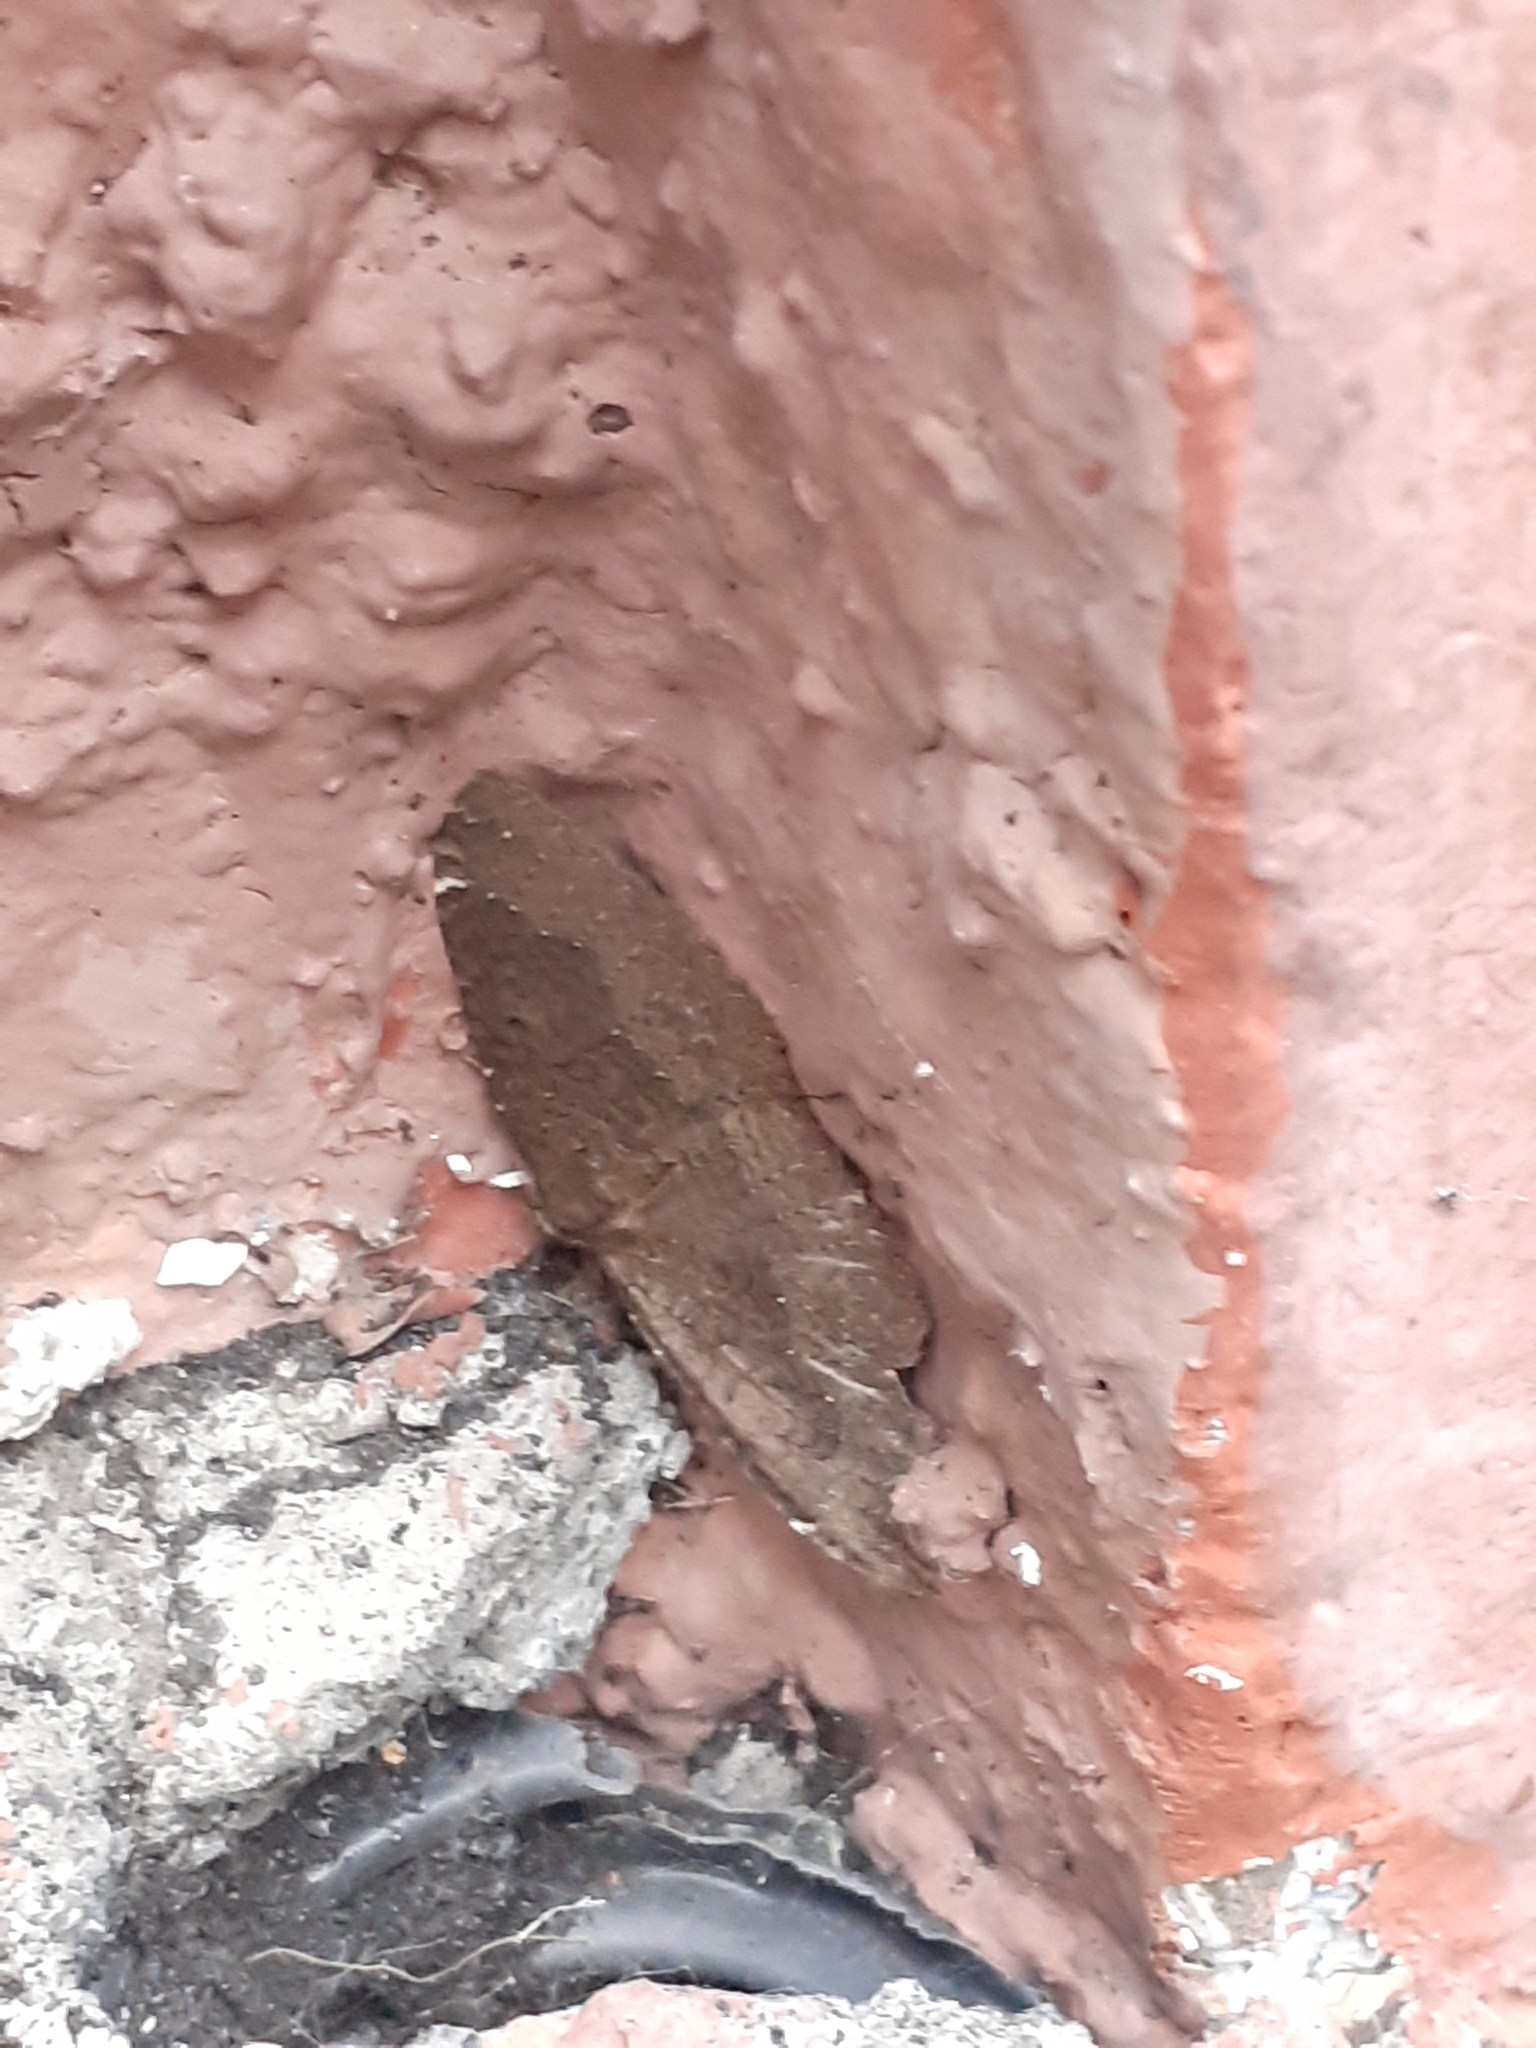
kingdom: Animalia
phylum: Arthropoda
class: Insecta
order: Lepidoptera
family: Geometridae
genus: Herbulotina
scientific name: Herbulotina grandis
